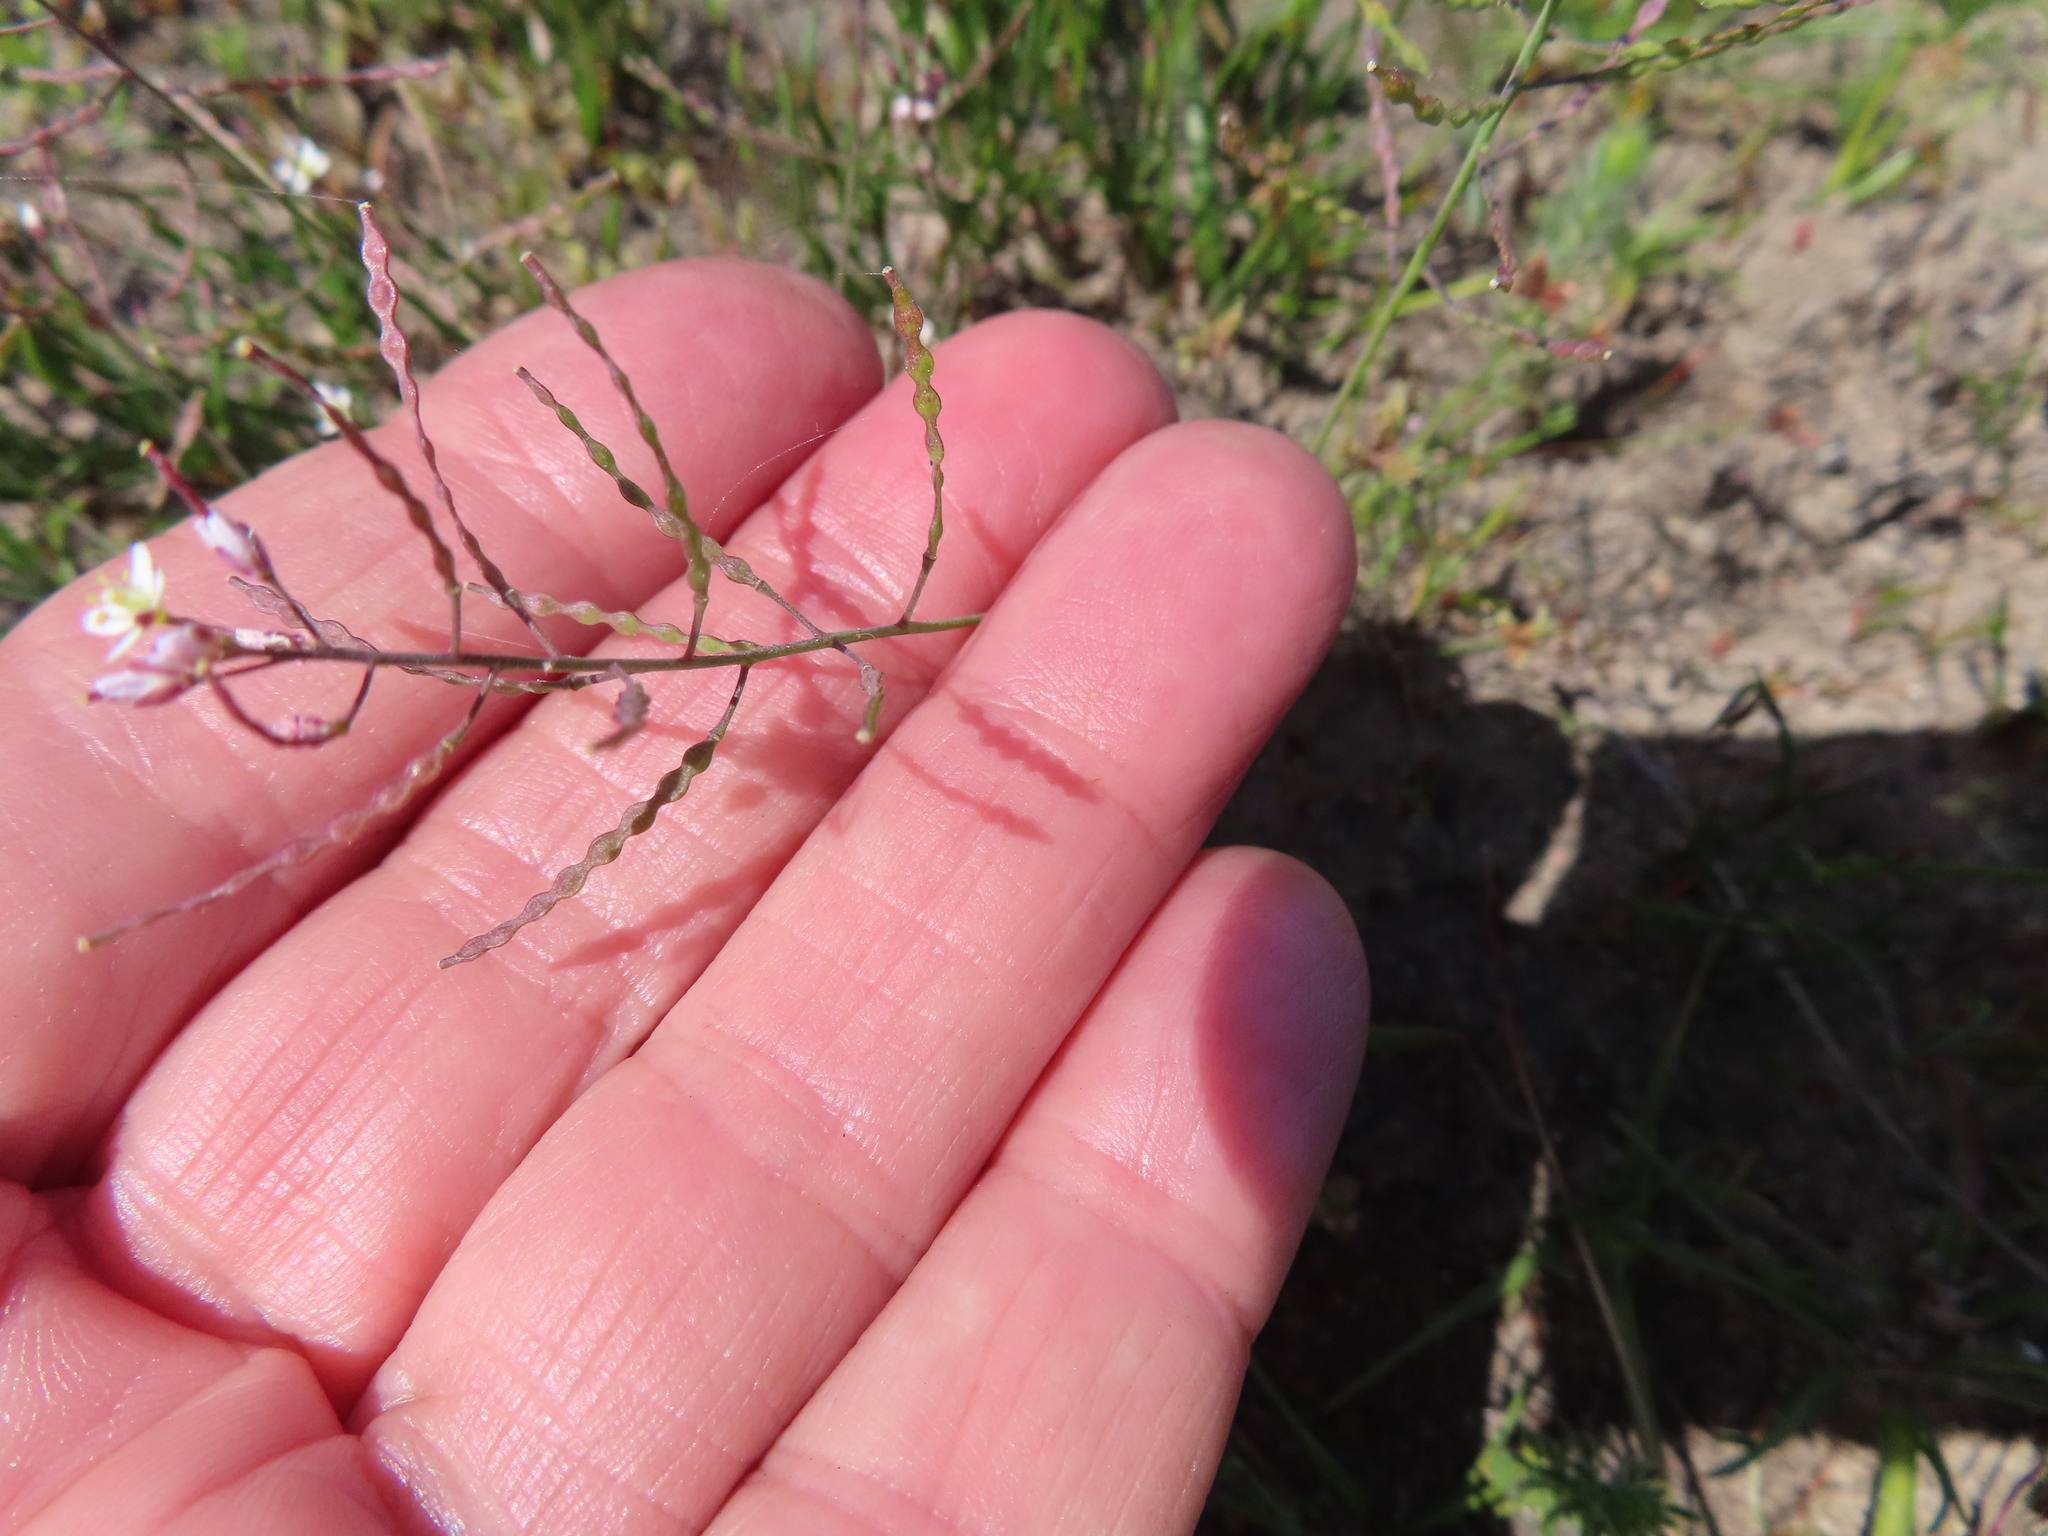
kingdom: Plantae
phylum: Tracheophyta
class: Magnoliopsida
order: Brassicales
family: Brassicaceae
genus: Heliophila
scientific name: Heliophila pusilla
